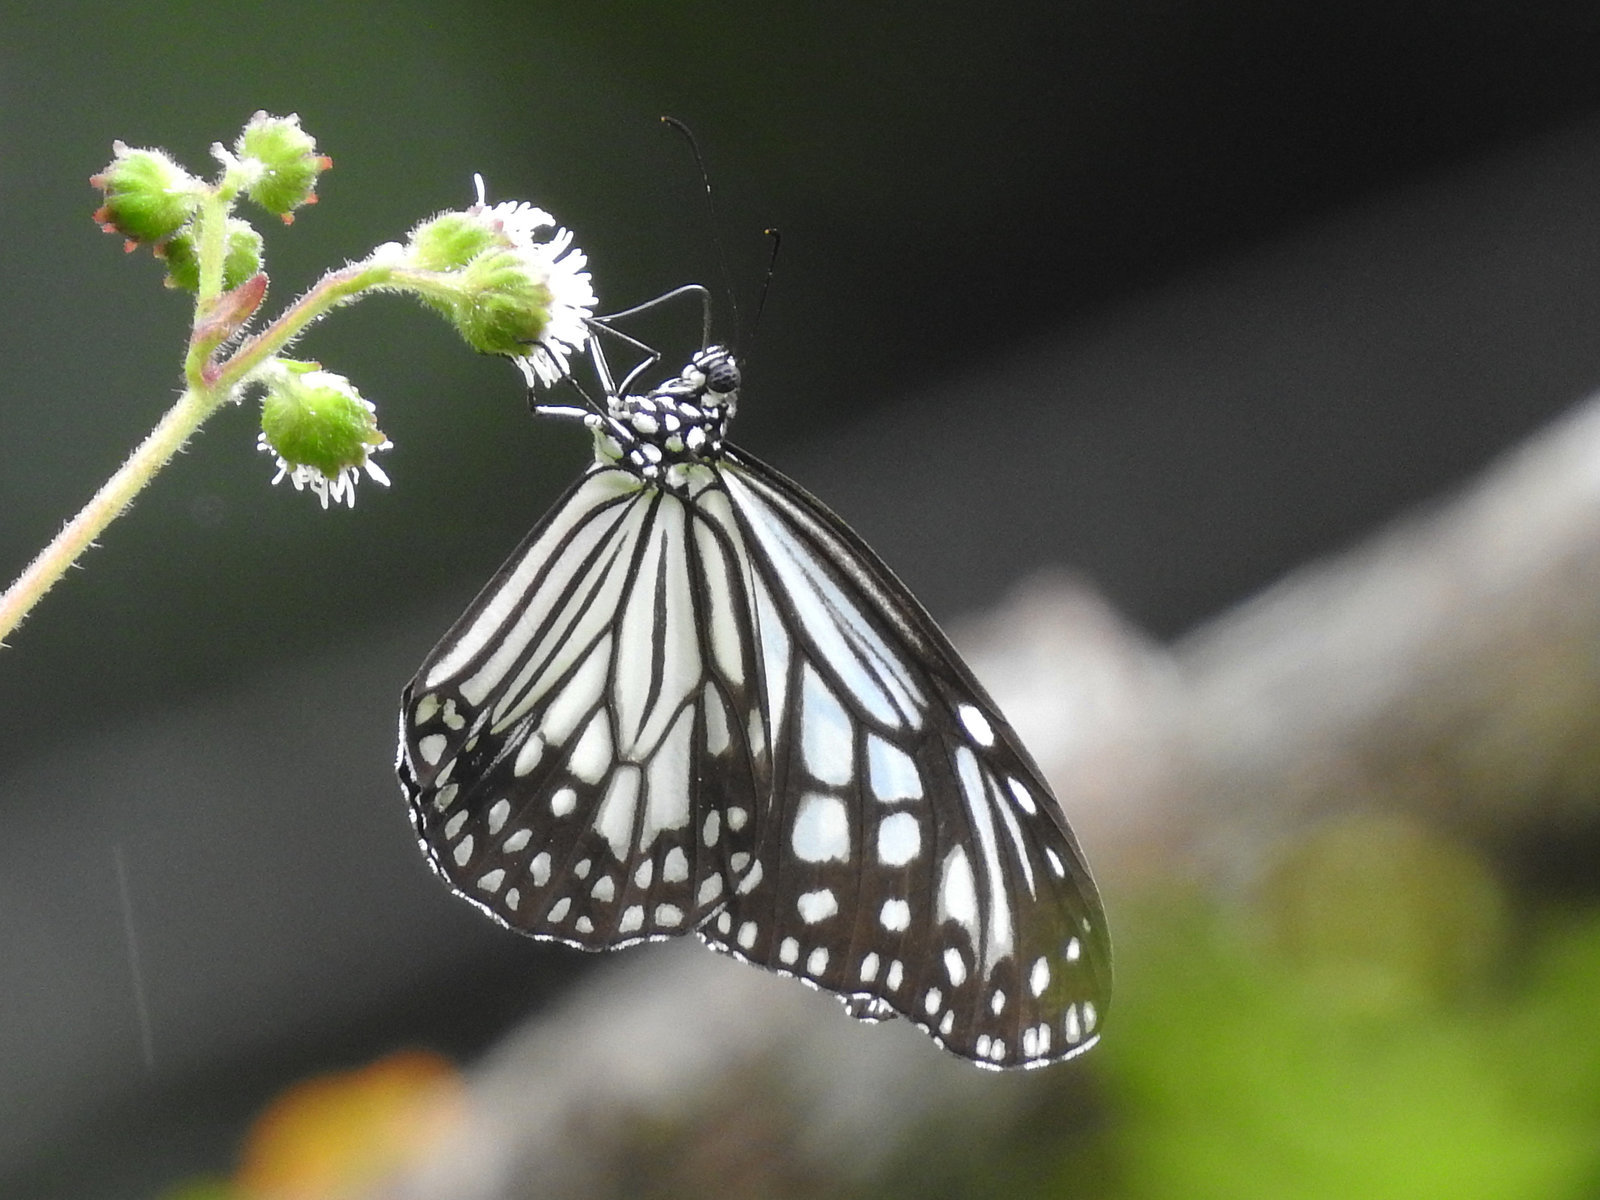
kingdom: Animalia
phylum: Arthropoda
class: Insecta
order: Lepidoptera
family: Nymphalidae
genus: Parantica
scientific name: Parantica aglea
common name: Glassy tiger
